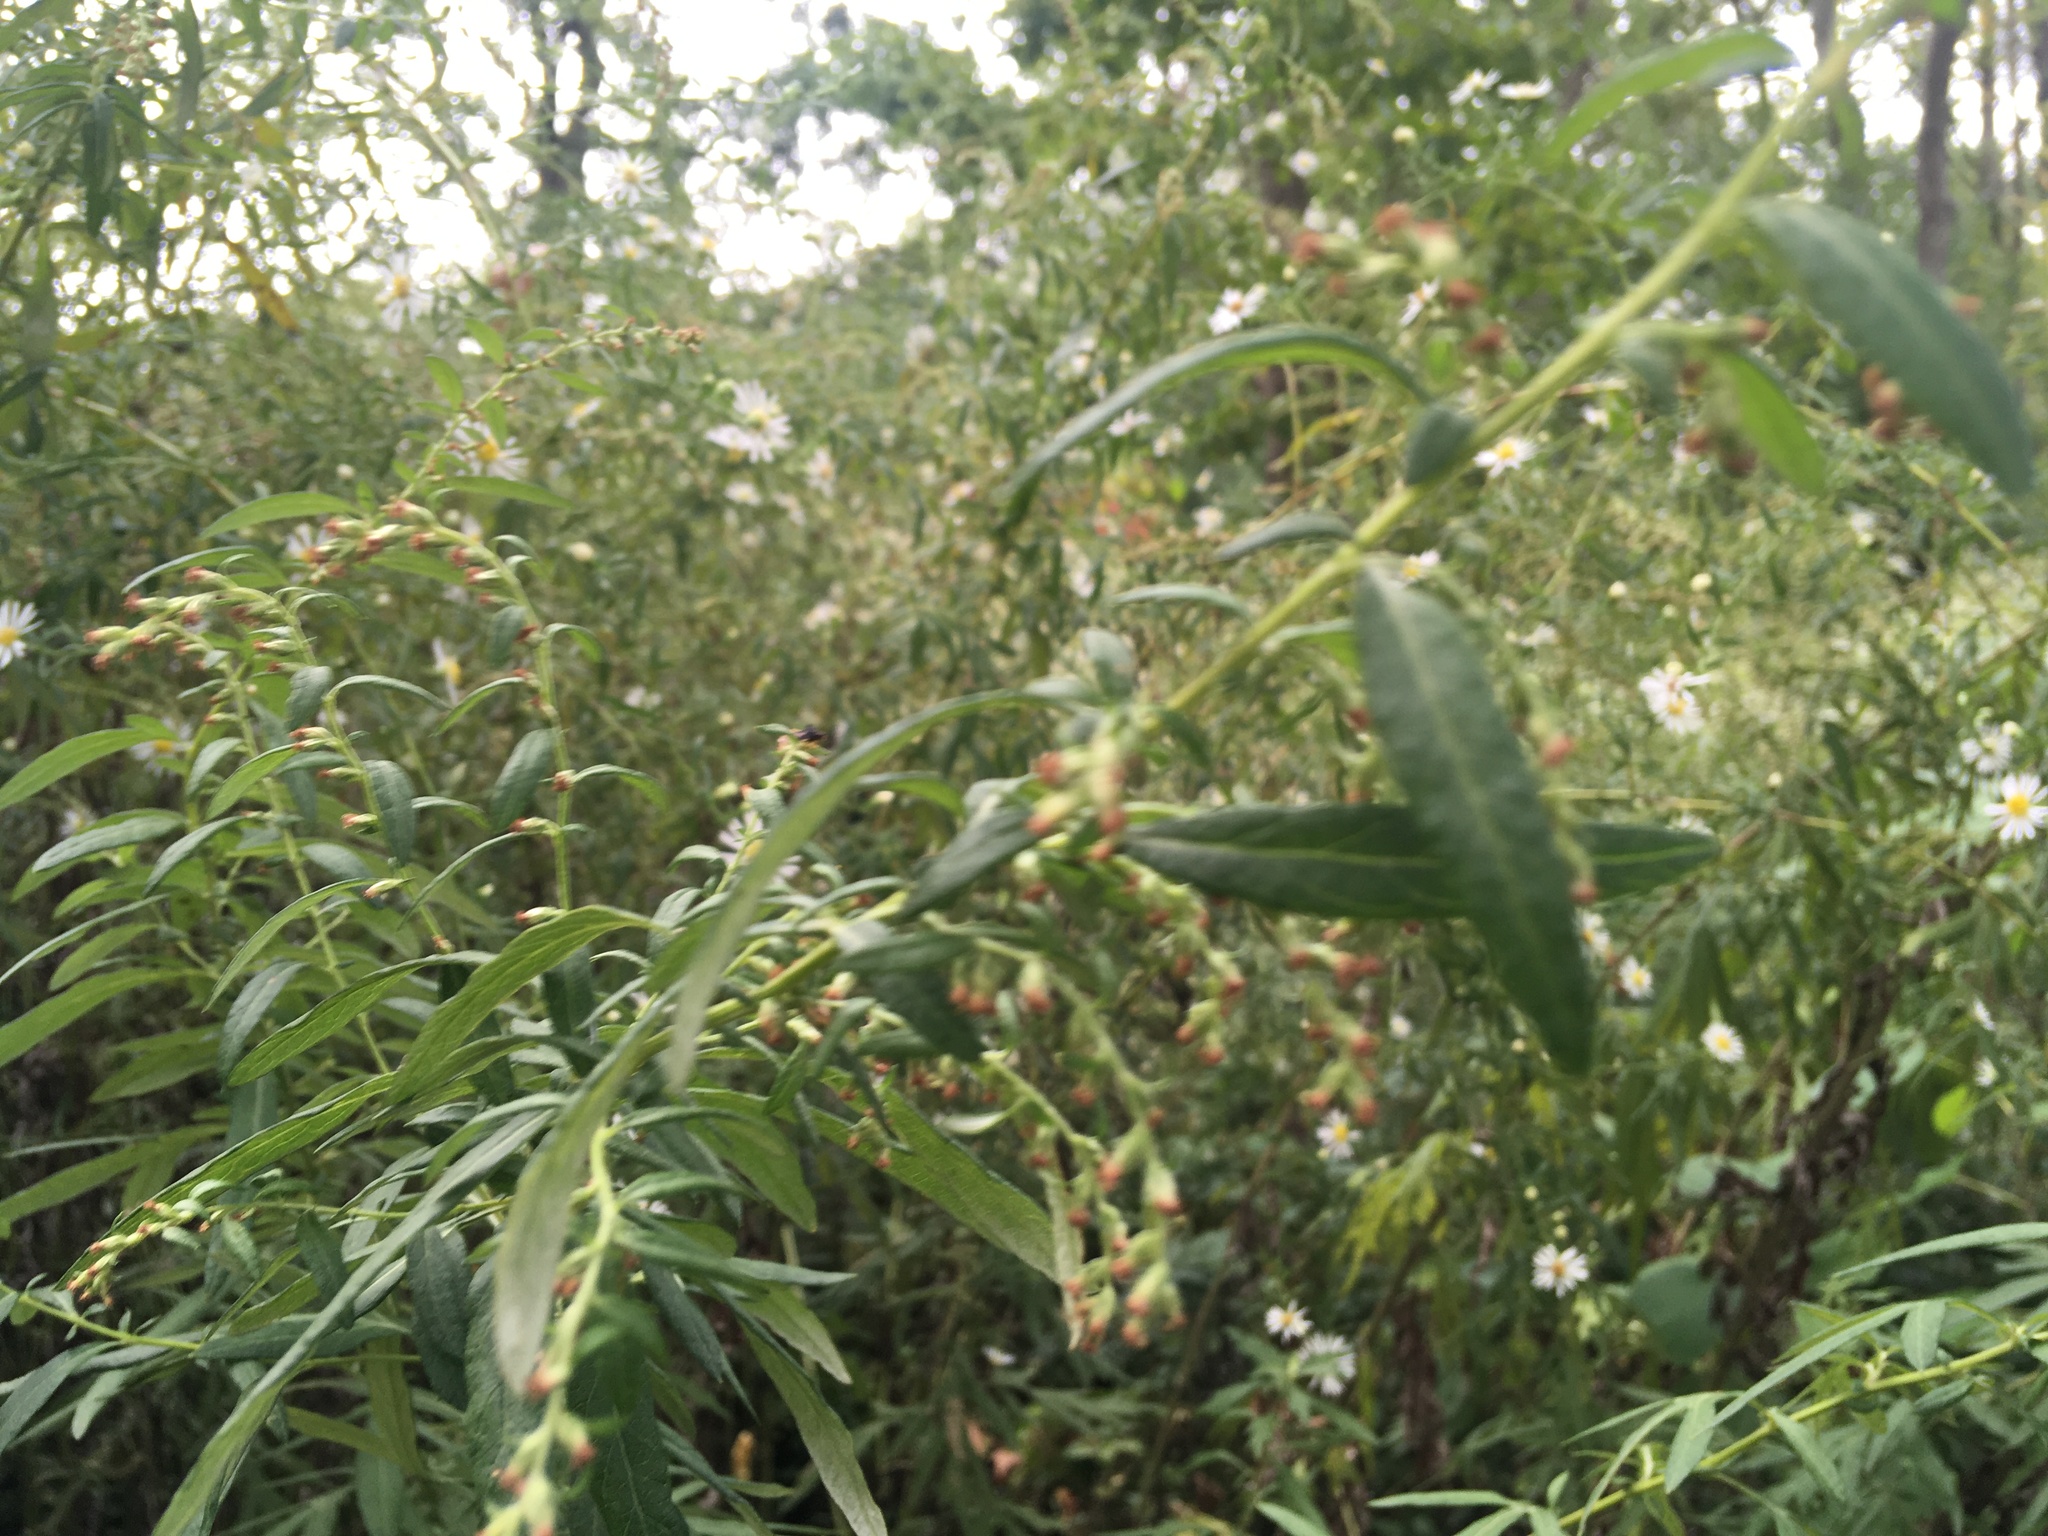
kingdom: Plantae
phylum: Tracheophyta
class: Magnoliopsida
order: Asterales
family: Asteraceae
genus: Artemisia
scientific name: Artemisia vulgaris
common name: Mugwort
